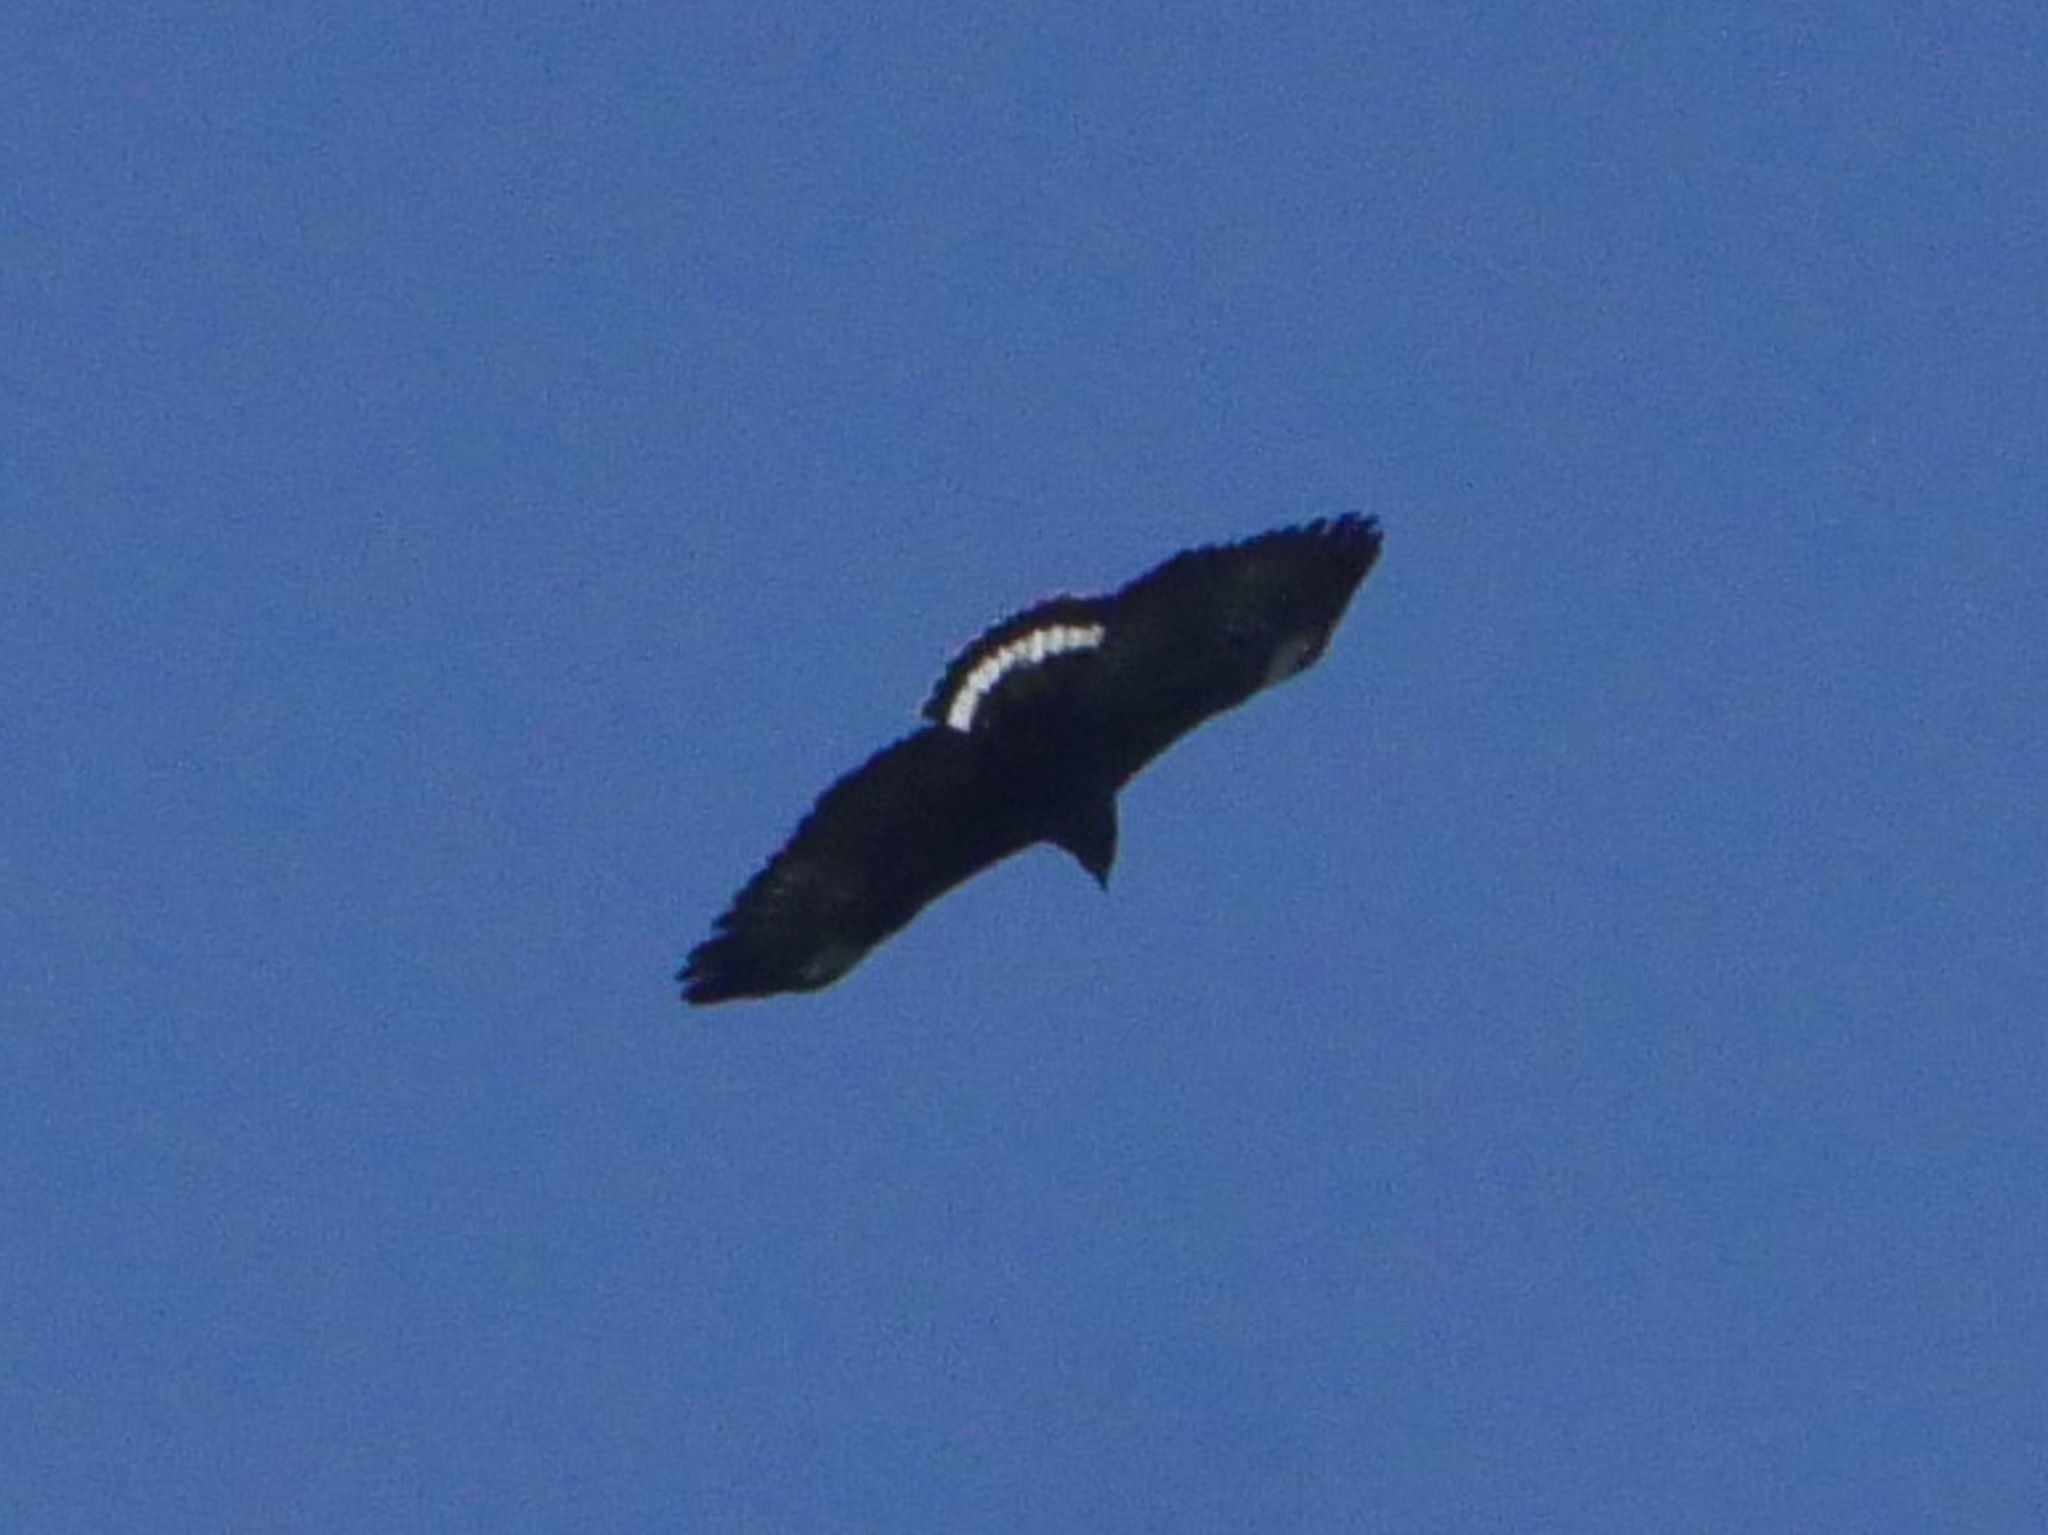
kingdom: Animalia
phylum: Chordata
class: Aves
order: Accipitriformes
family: Accipitridae
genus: Buteogallus
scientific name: Buteogallus anthracinus
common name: Common black hawk
